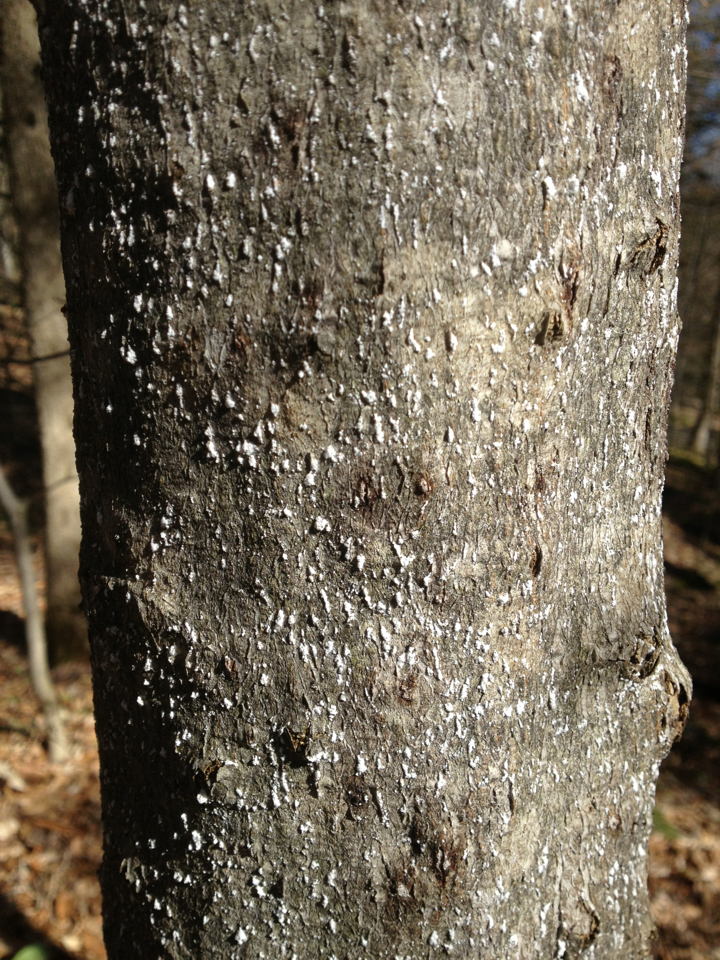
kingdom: Plantae
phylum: Tracheophyta
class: Magnoliopsida
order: Fagales
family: Fagaceae
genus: Fagus
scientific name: Fagus grandifolia
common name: American beech
